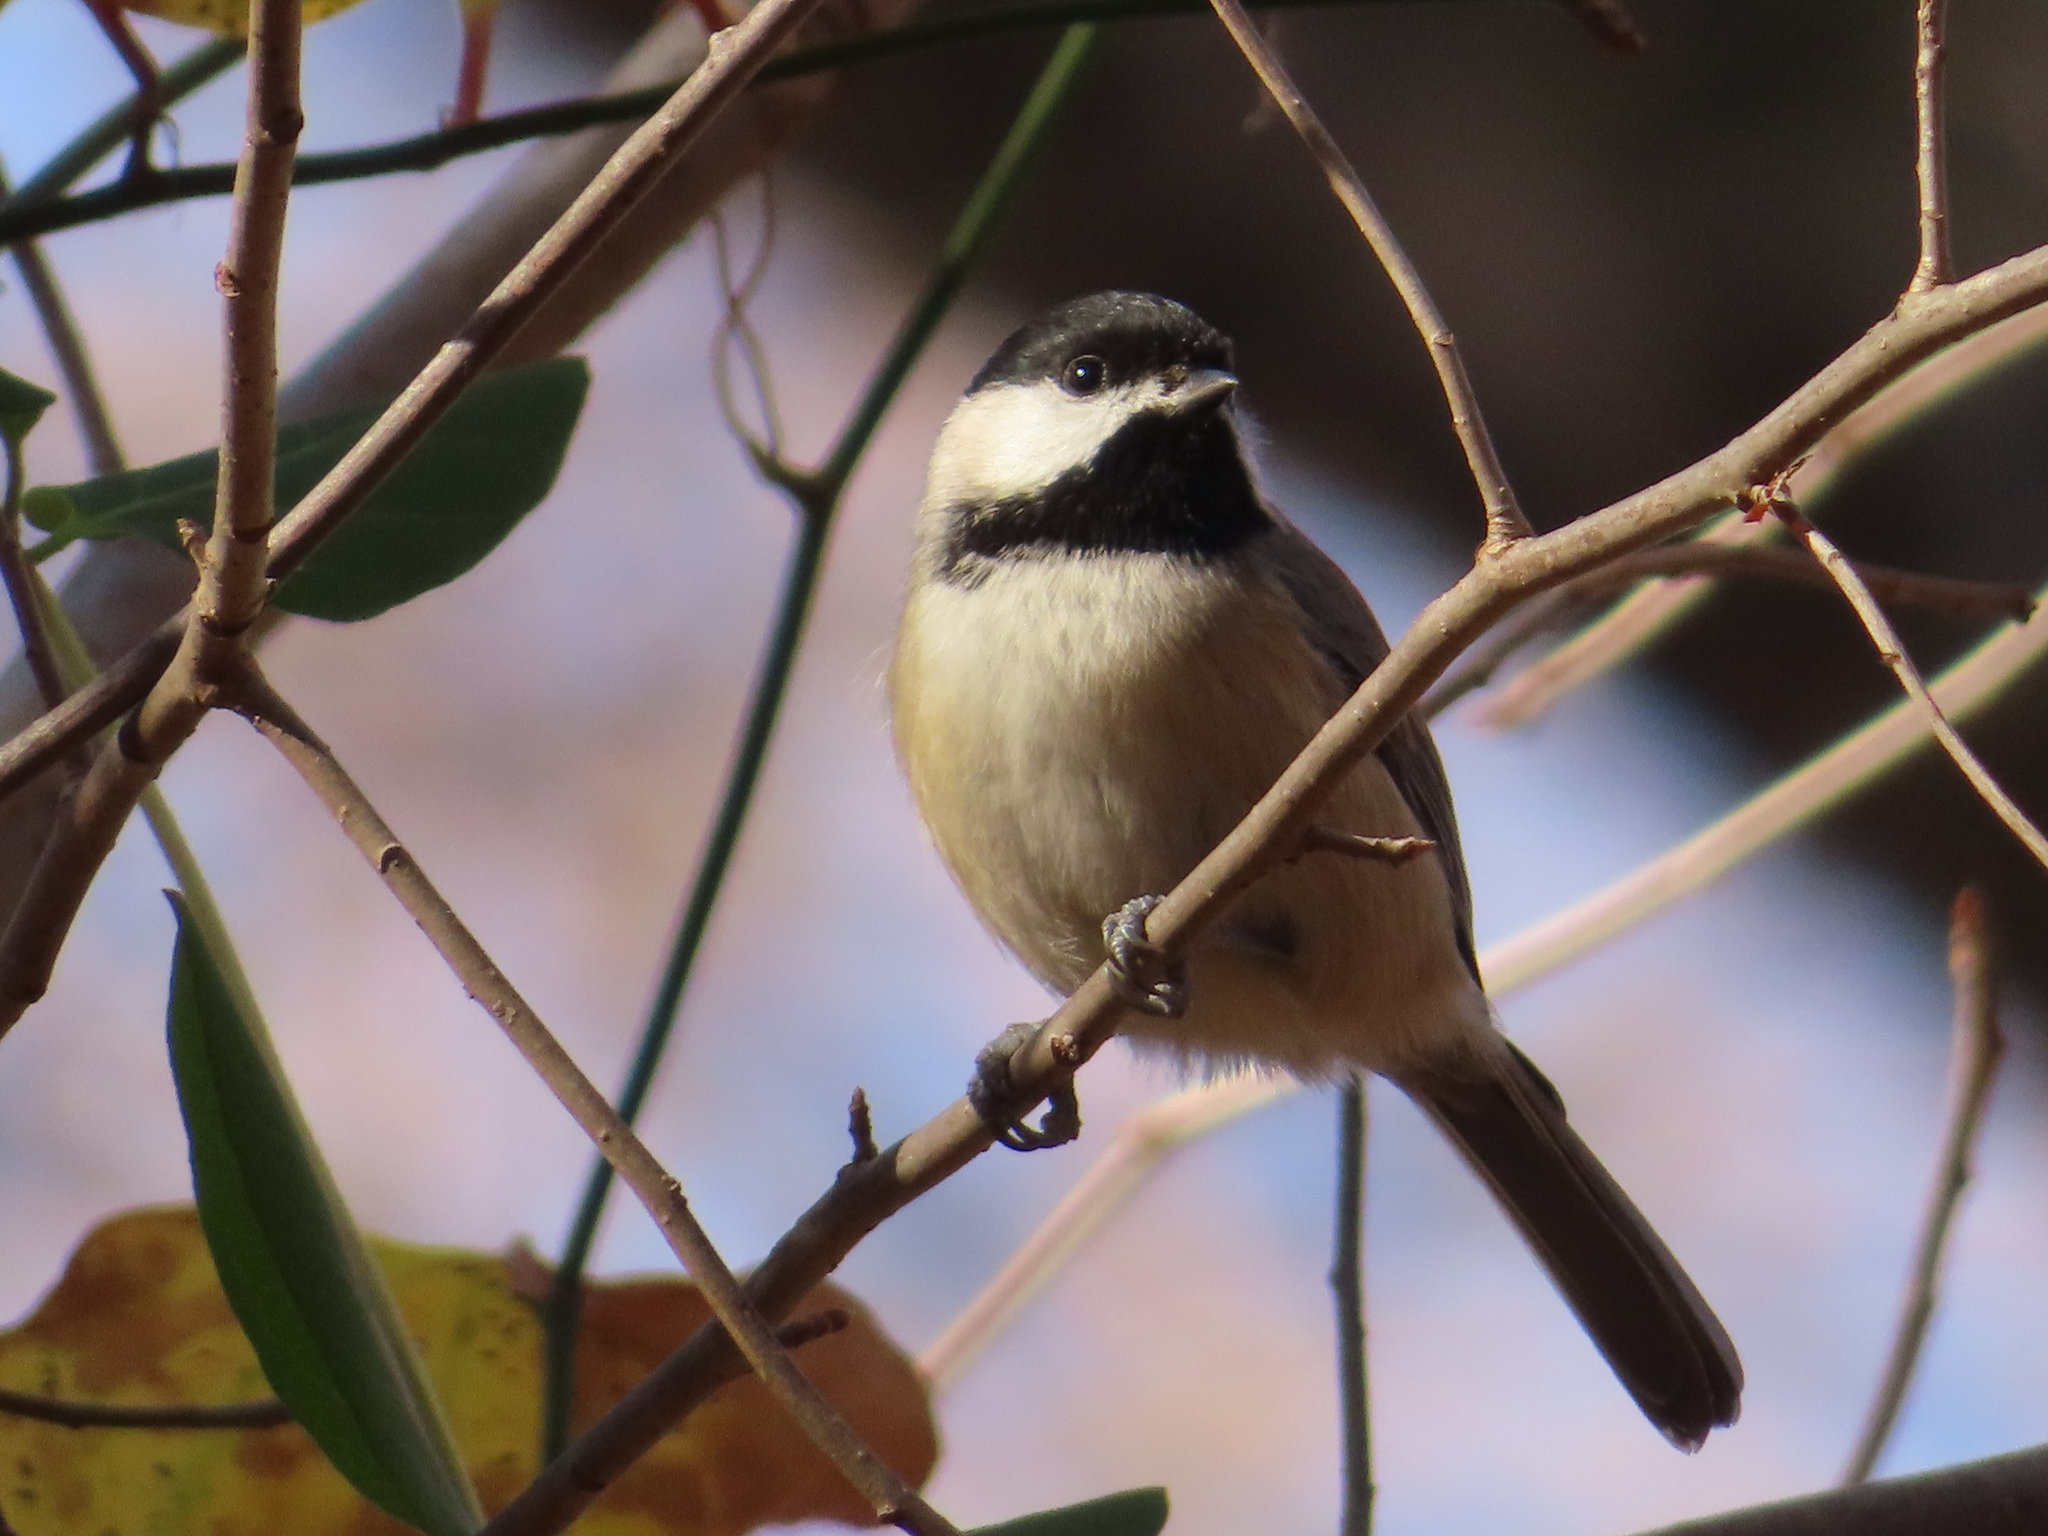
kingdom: Animalia
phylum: Chordata
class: Aves
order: Passeriformes
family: Paridae
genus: Poecile
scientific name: Poecile carolinensis
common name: Carolina chickadee
